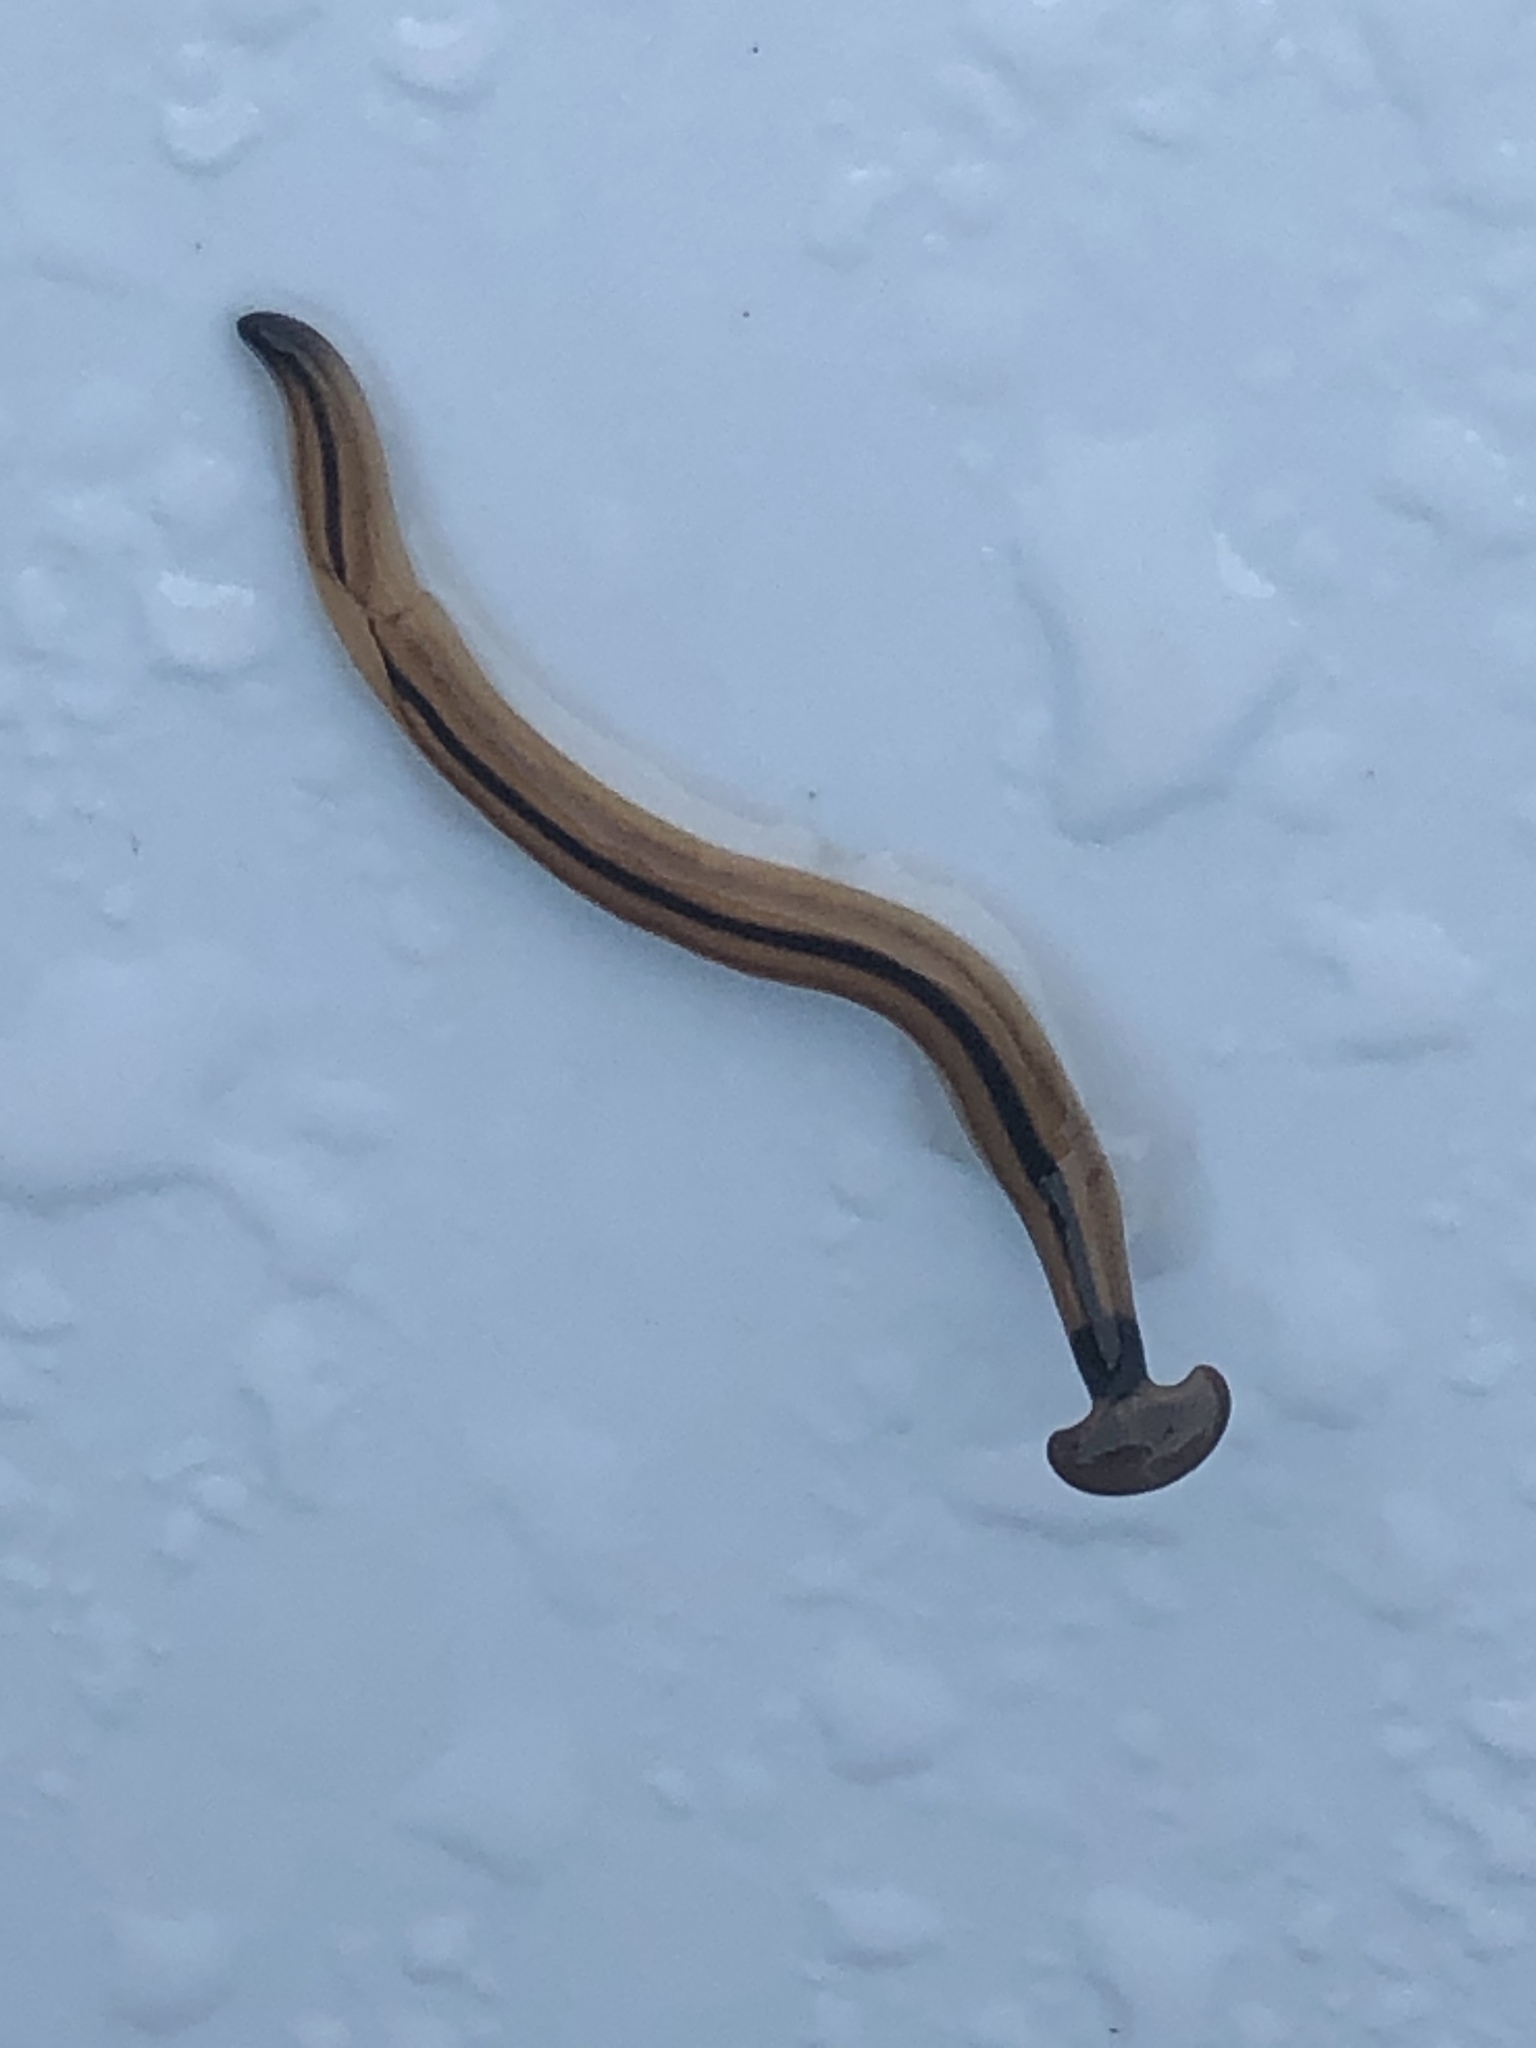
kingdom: Animalia
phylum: Platyhelminthes
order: Tricladida
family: Geoplanidae
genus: Bipalium
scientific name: Bipalium vagum
